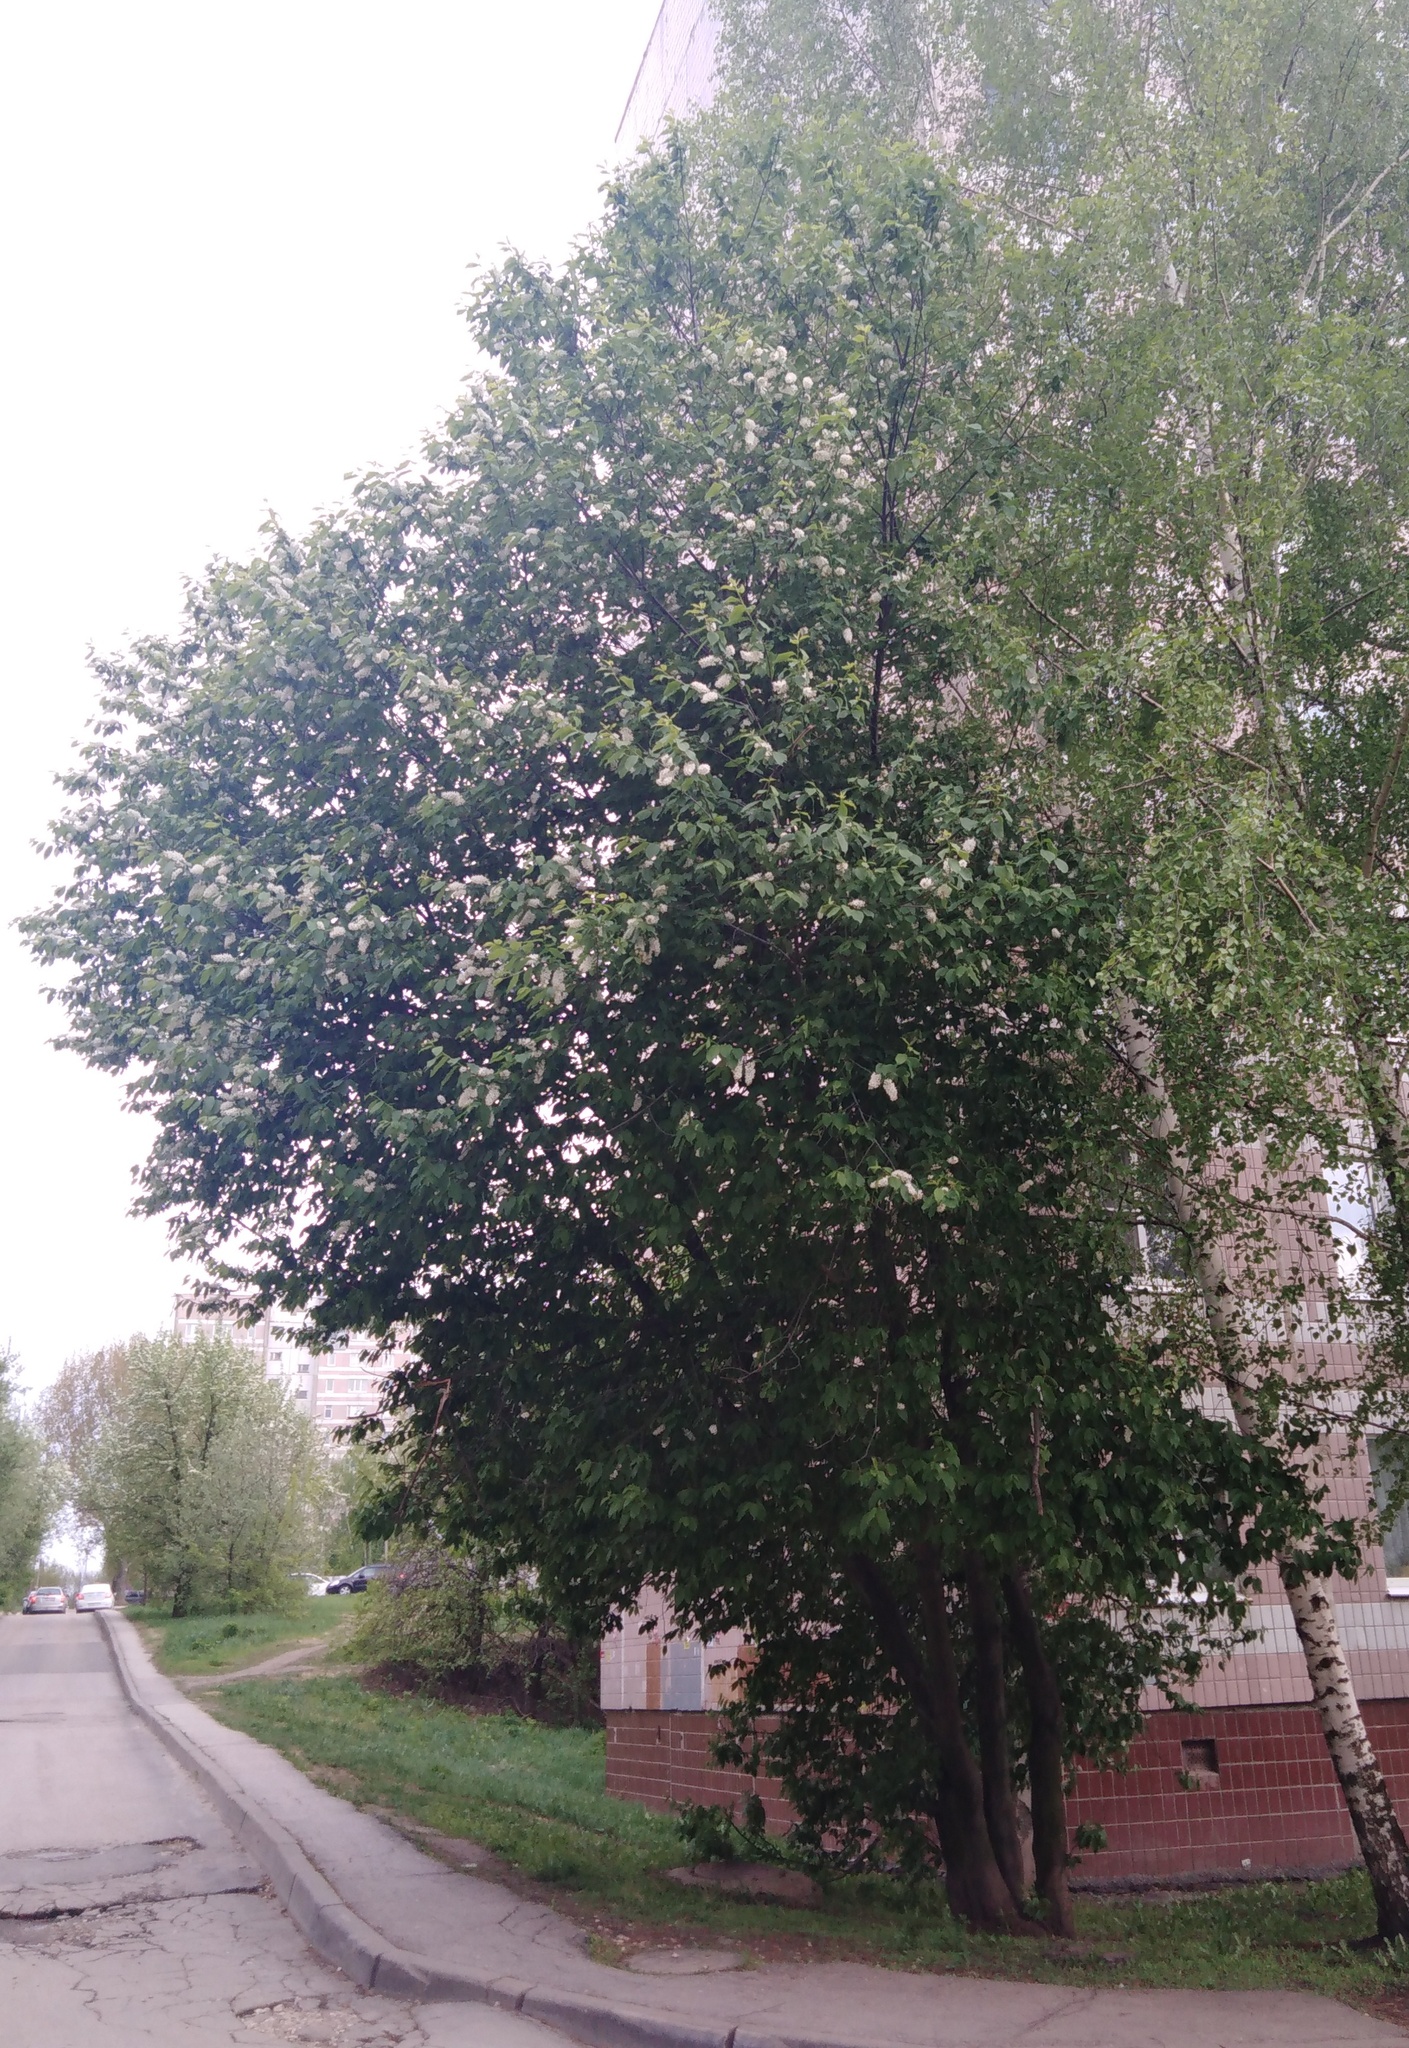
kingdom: Plantae
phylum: Tracheophyta
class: Magnoliopsida
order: Rosales
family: Rosaceae
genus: Prunus
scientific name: Prunus padus
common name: Bird cherry
